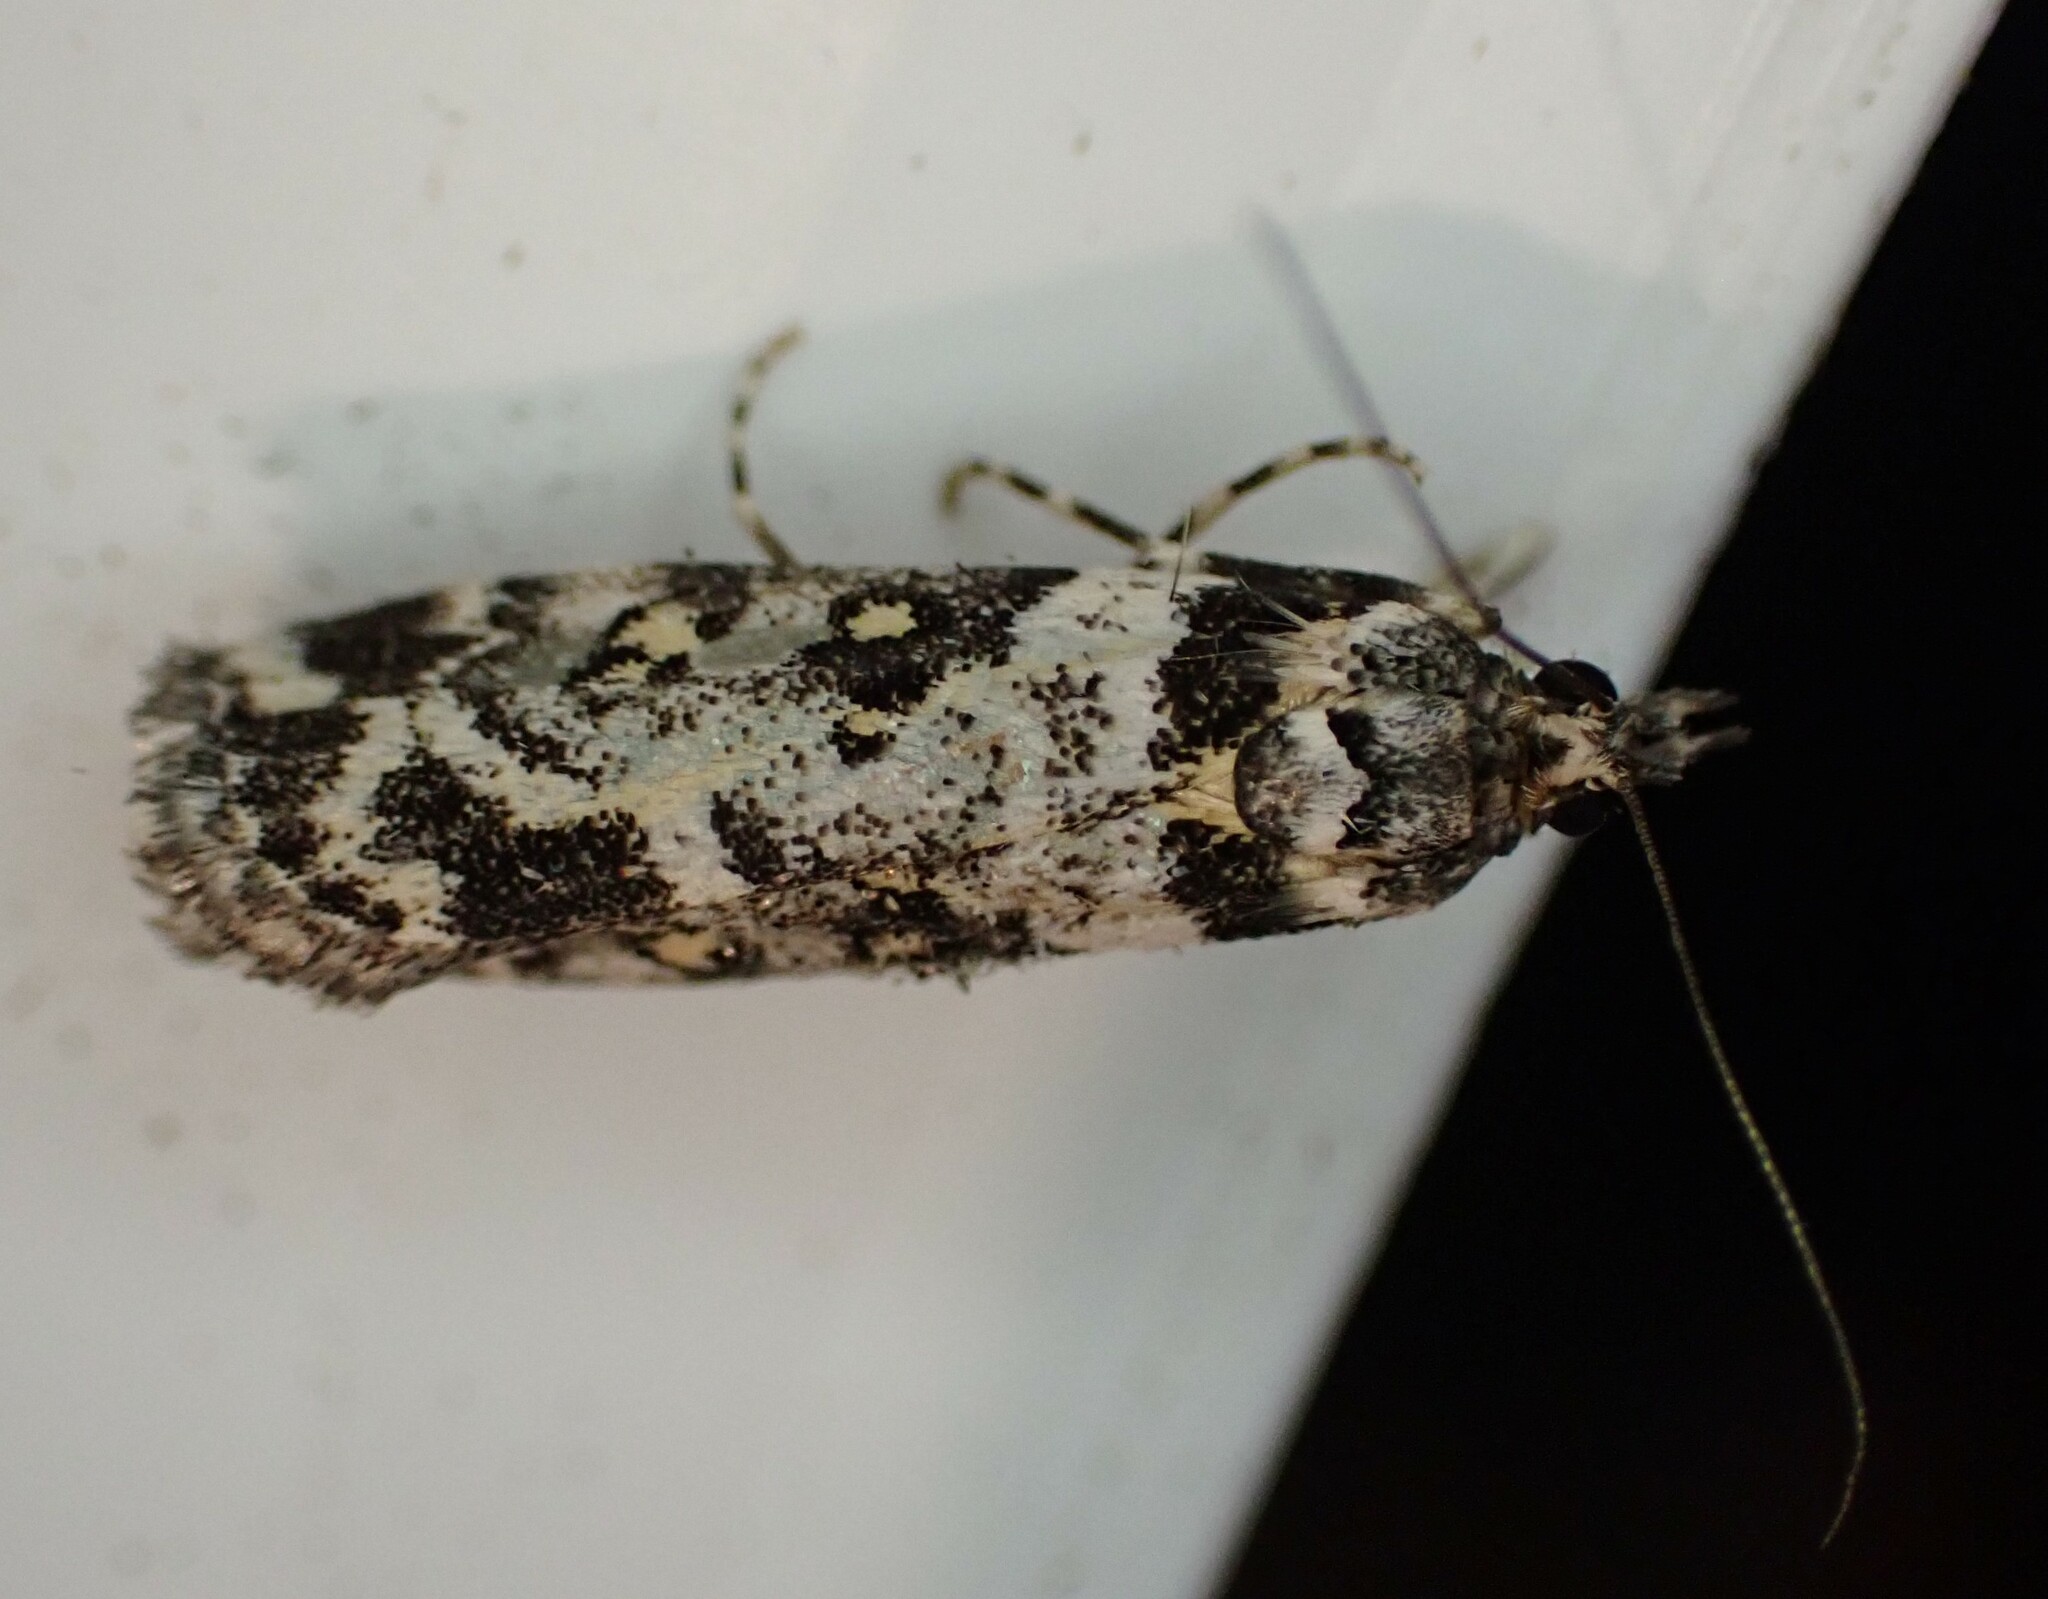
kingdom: Animalia
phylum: Arthropoda
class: Insecta
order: Lepidoptera
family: Crambidae
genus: Eudonia
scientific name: Eudonia diphtheralis
